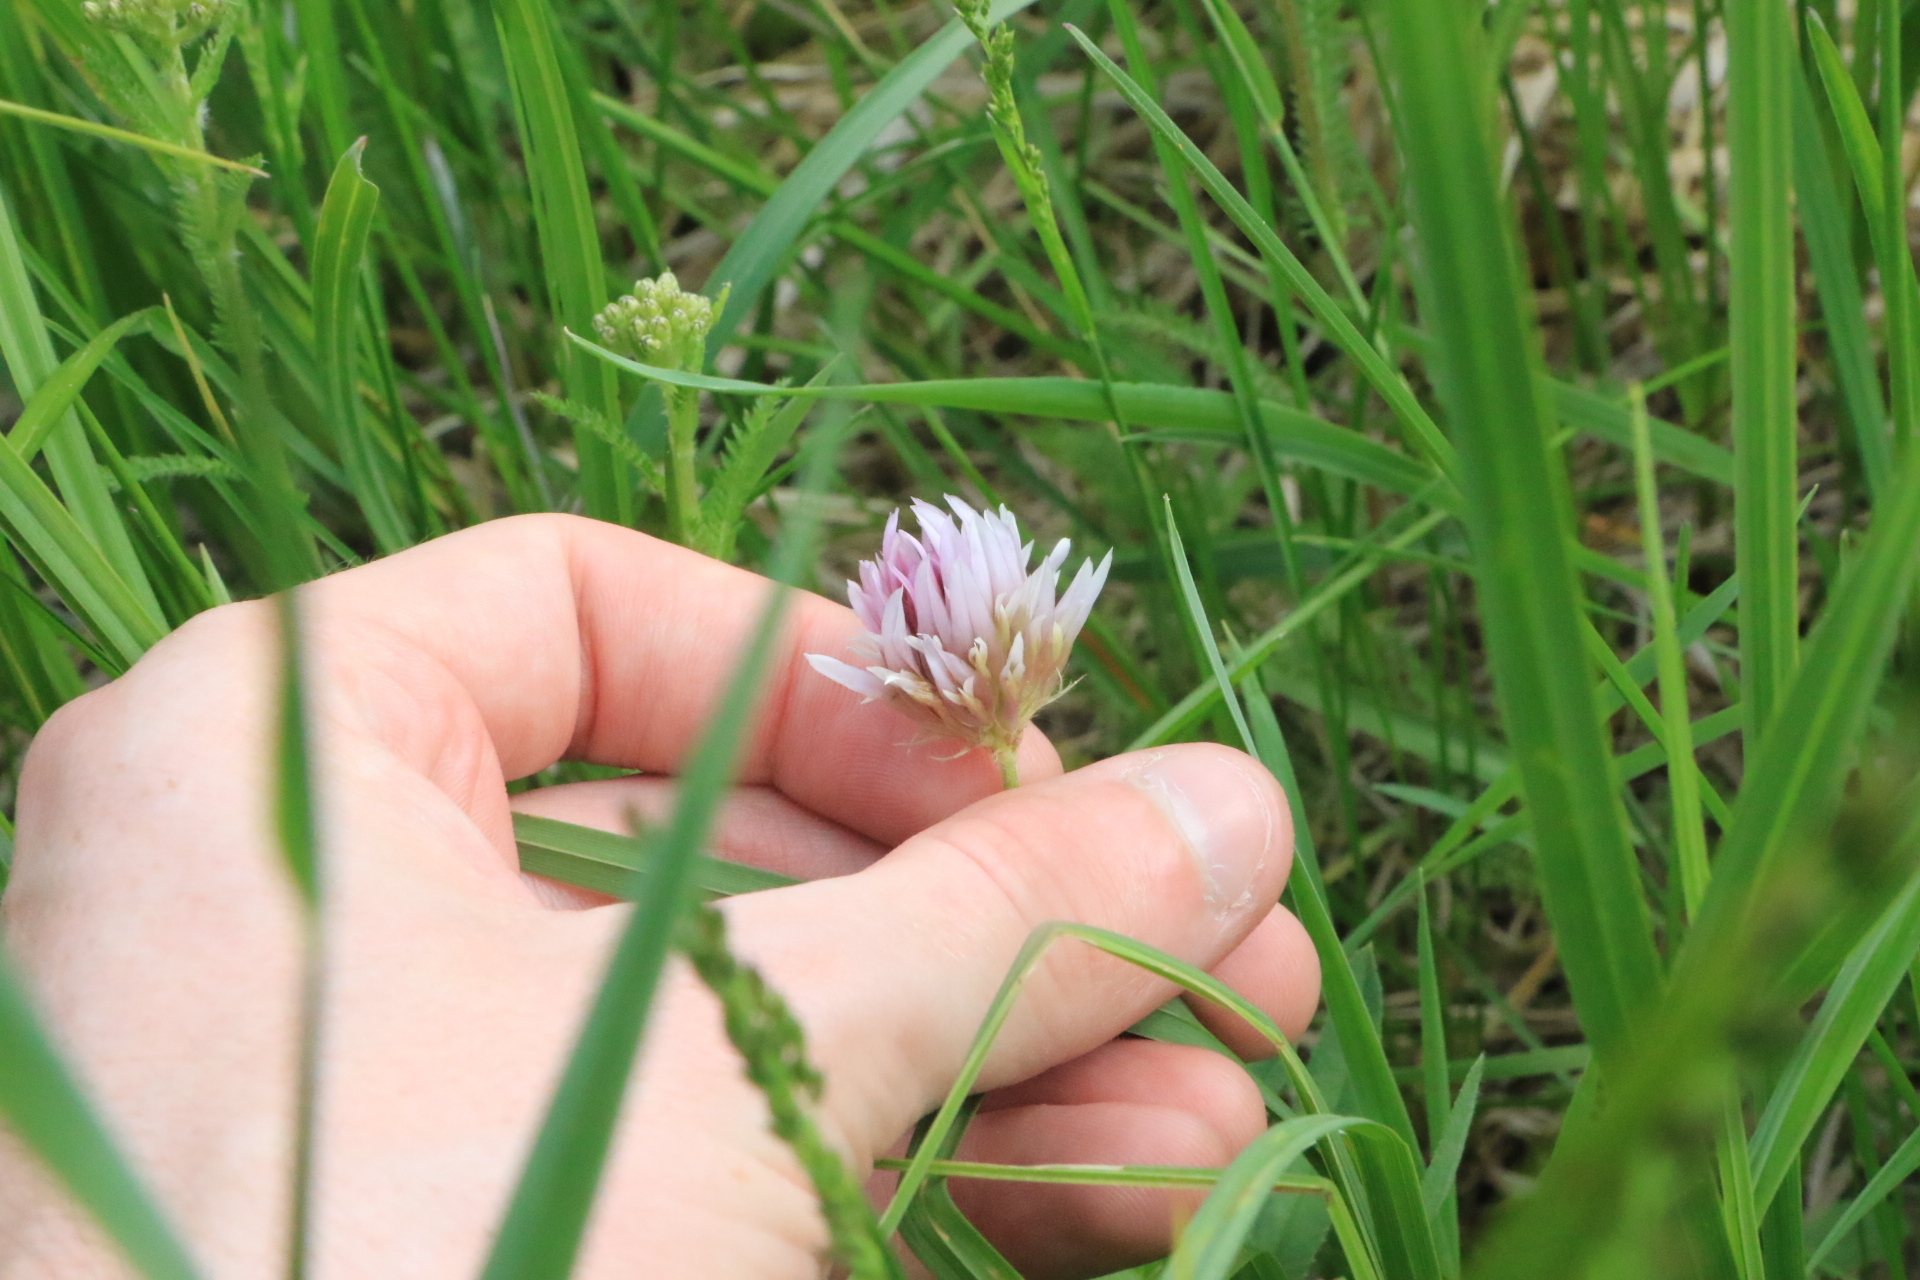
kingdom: Plantae
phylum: Tracheophyta
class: Magnoliopsida
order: Fabales
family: Fabaceae
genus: Trifolium
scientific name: Trifolium longipes
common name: Long-stalk clover
